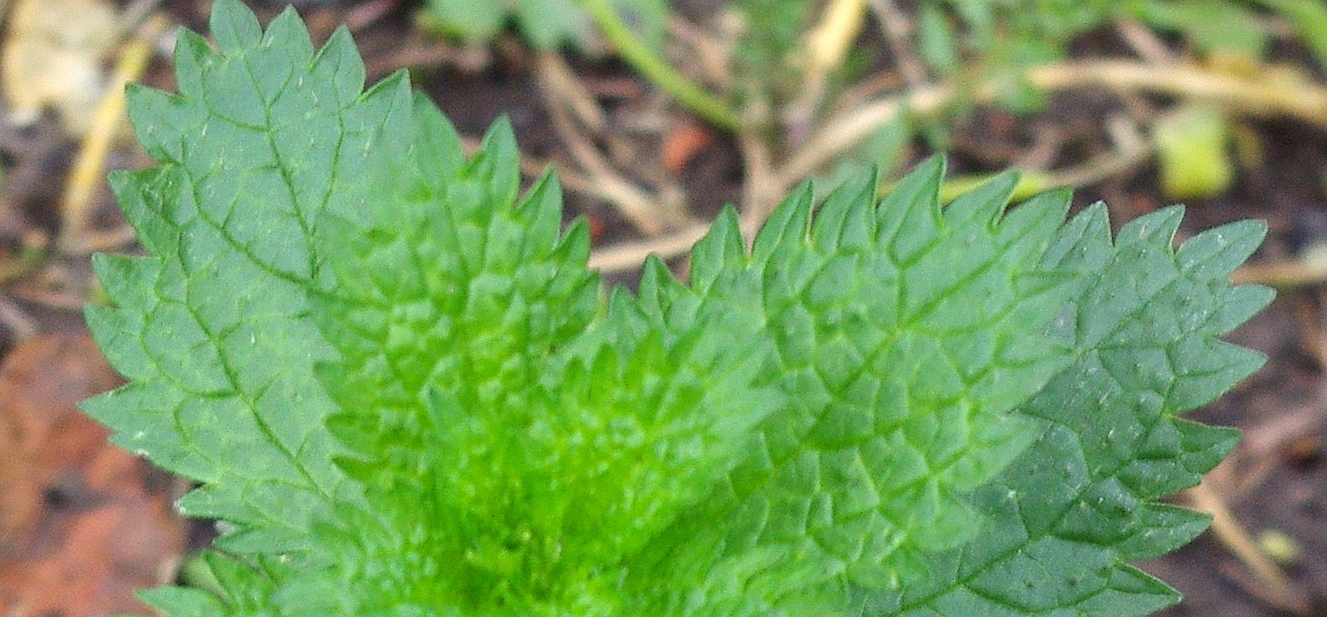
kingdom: Plantae
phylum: Tracheophyta
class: Magnoliopsida
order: Rosales
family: Urticaceae
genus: Urtica
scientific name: Urtica urens
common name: Dwarf nettle
